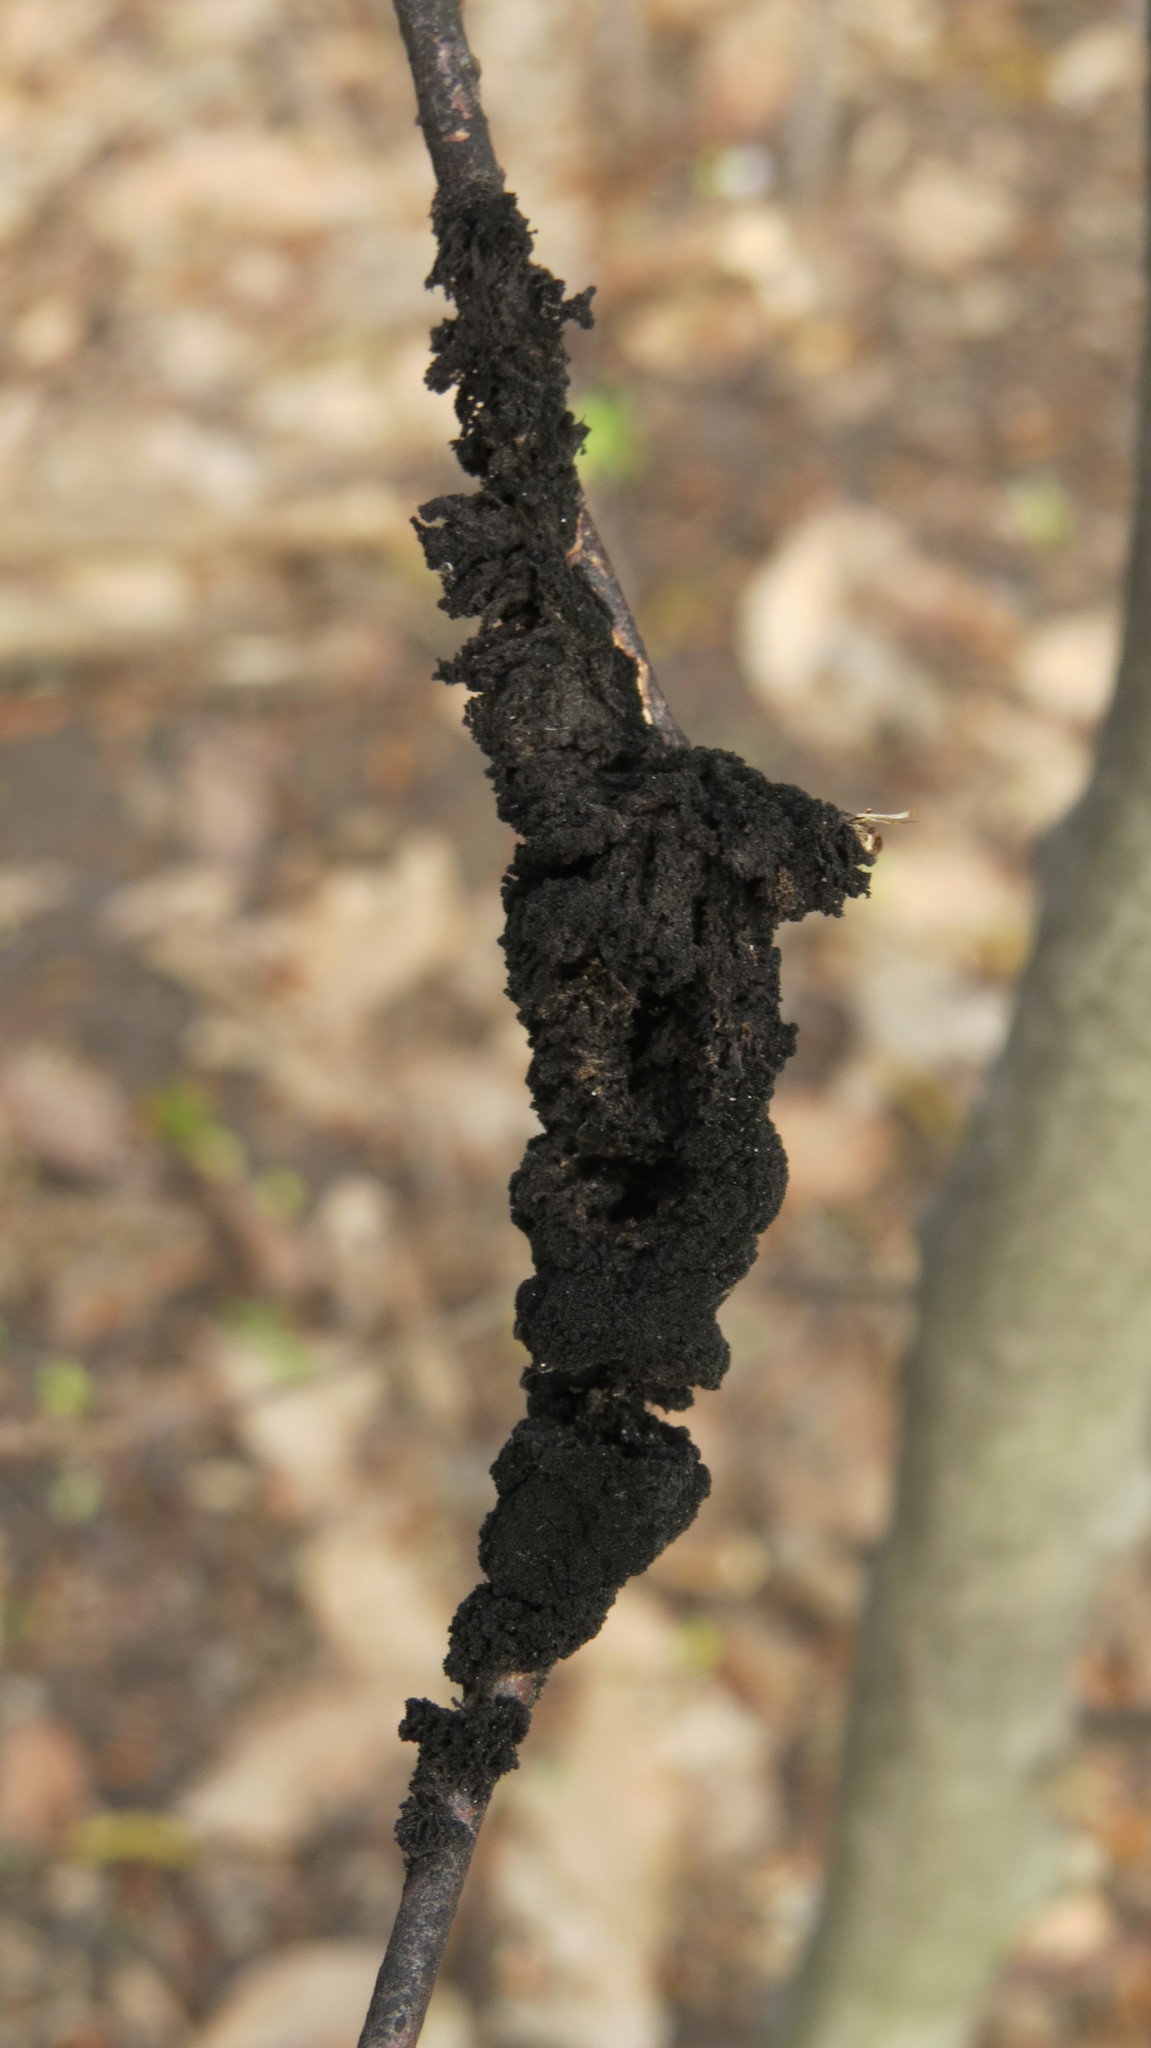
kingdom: Fungi
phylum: Ascomycota
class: Dothideomycetes
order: Capnodiales
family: Capnodiaceae
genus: Scorias
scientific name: Scorias spongiosa
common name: Black sooty mold
